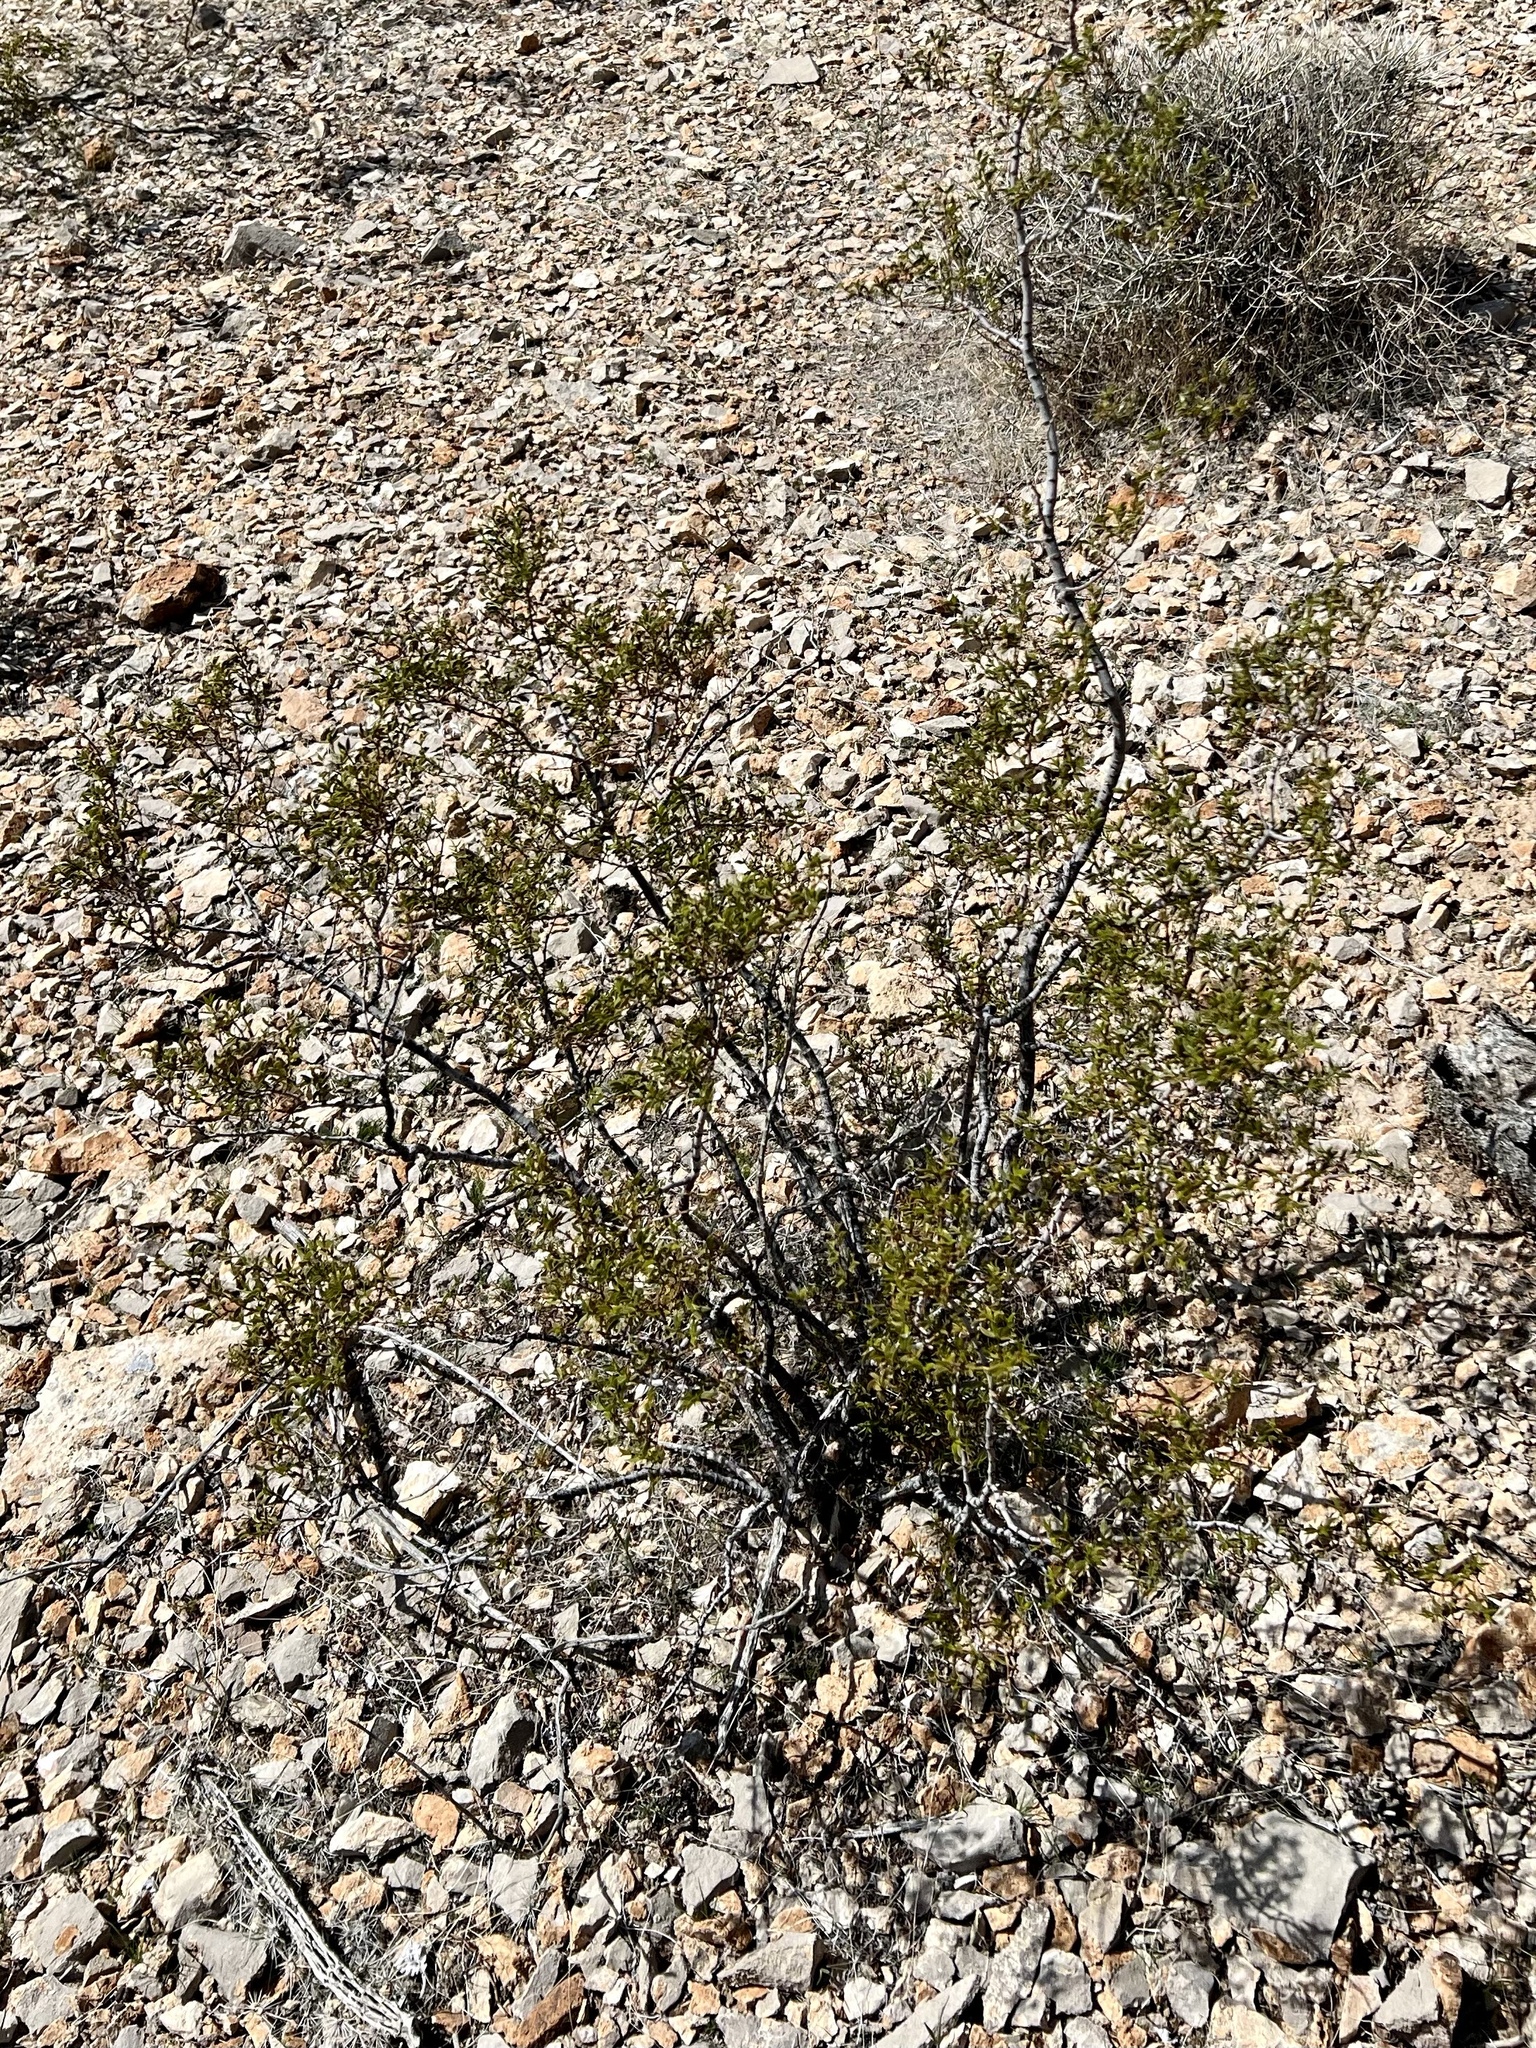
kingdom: Plantae
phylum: Tracheophyta
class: Magnoliopsida
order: Zygophyllales
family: Zygophyllaceae
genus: Larrea
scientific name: Larrea tridentata
